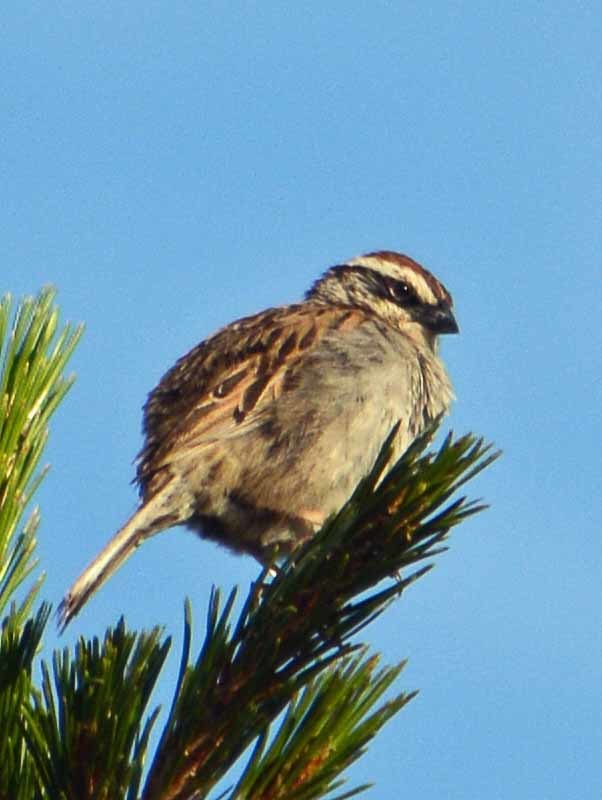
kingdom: Animalia
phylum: Chordata
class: Aves
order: Passeriformes
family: Passerellidae
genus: Oriturus
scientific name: Oriturus superciliosus
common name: Striped sparrow
